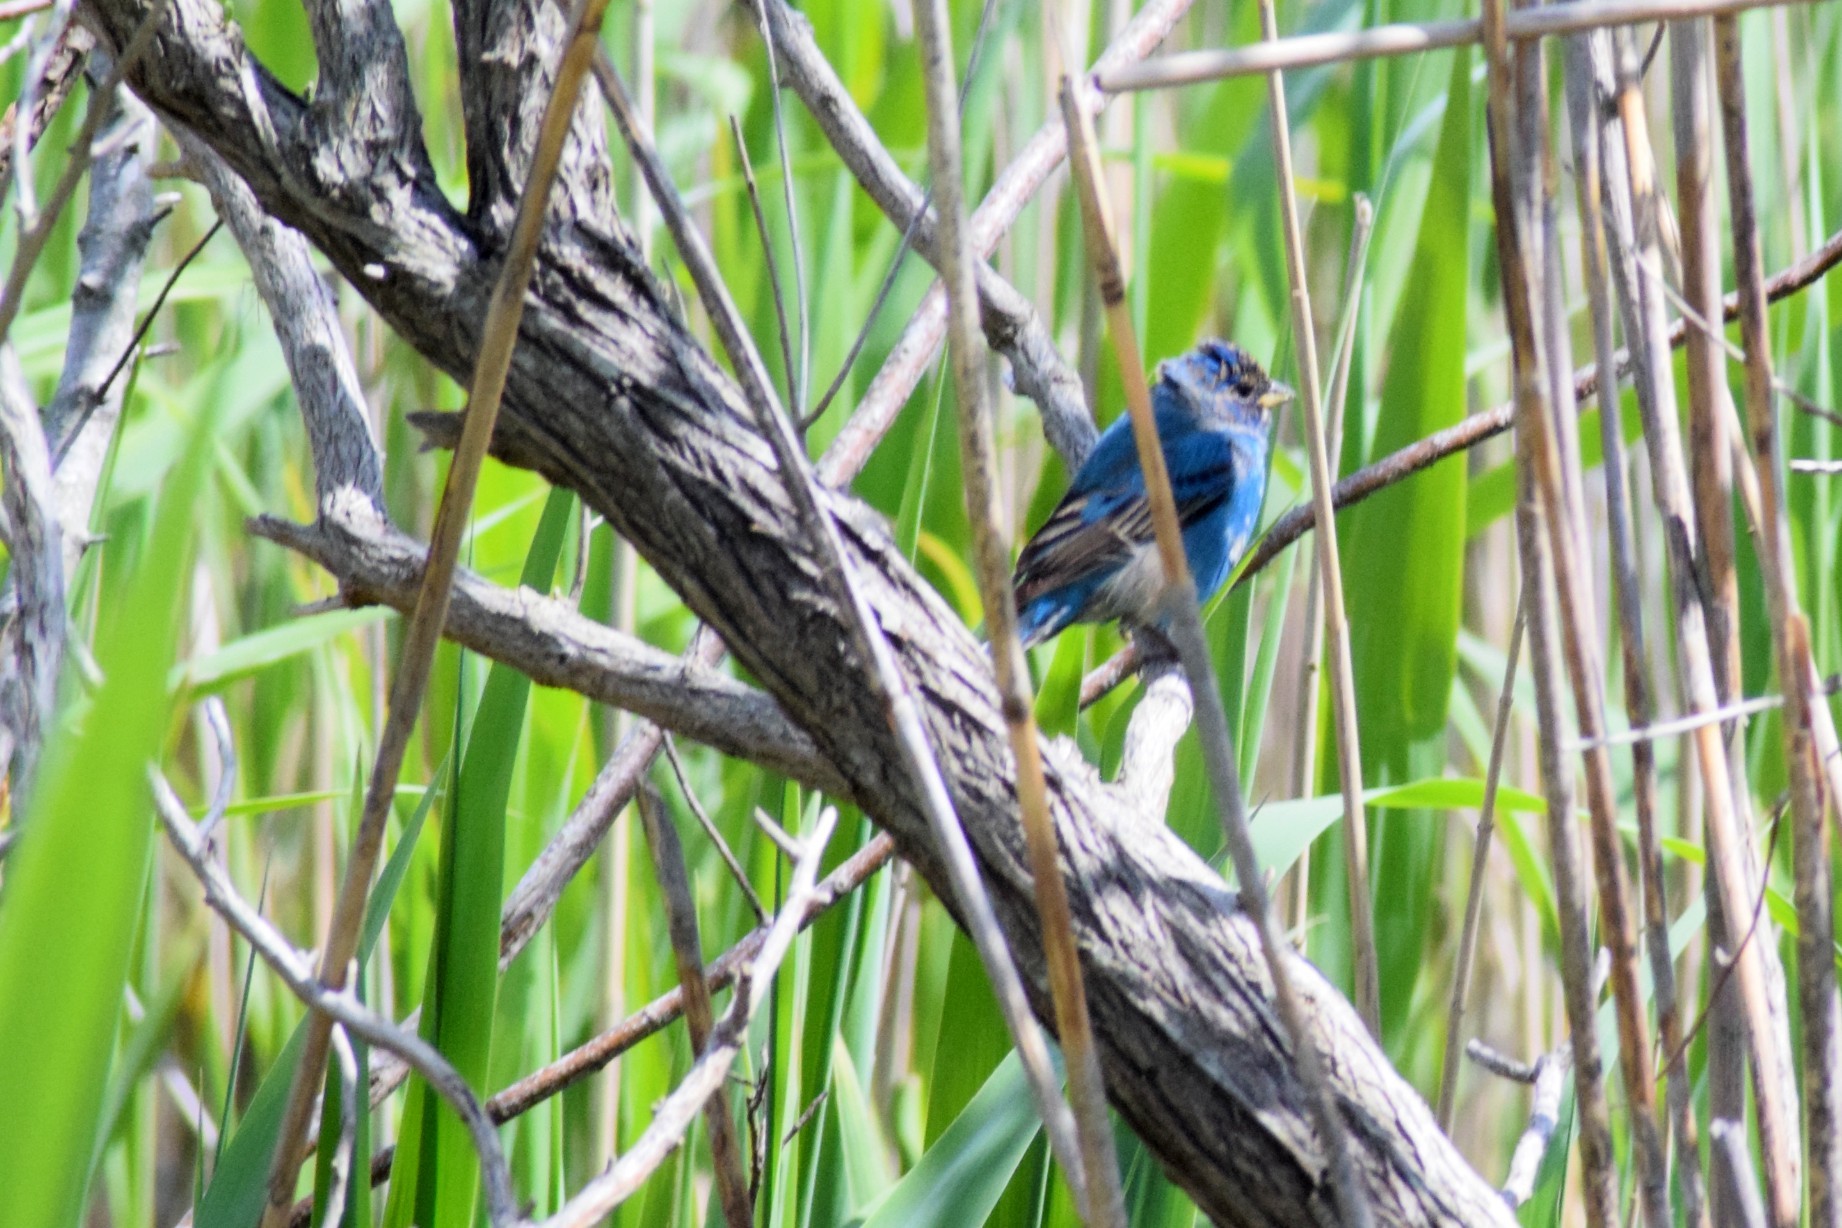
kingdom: Animalia
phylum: Chordata
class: Aves
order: Passeriformes
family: Cardinalidae
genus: Passerina
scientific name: Passerina cyanea
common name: Indigo bunting
